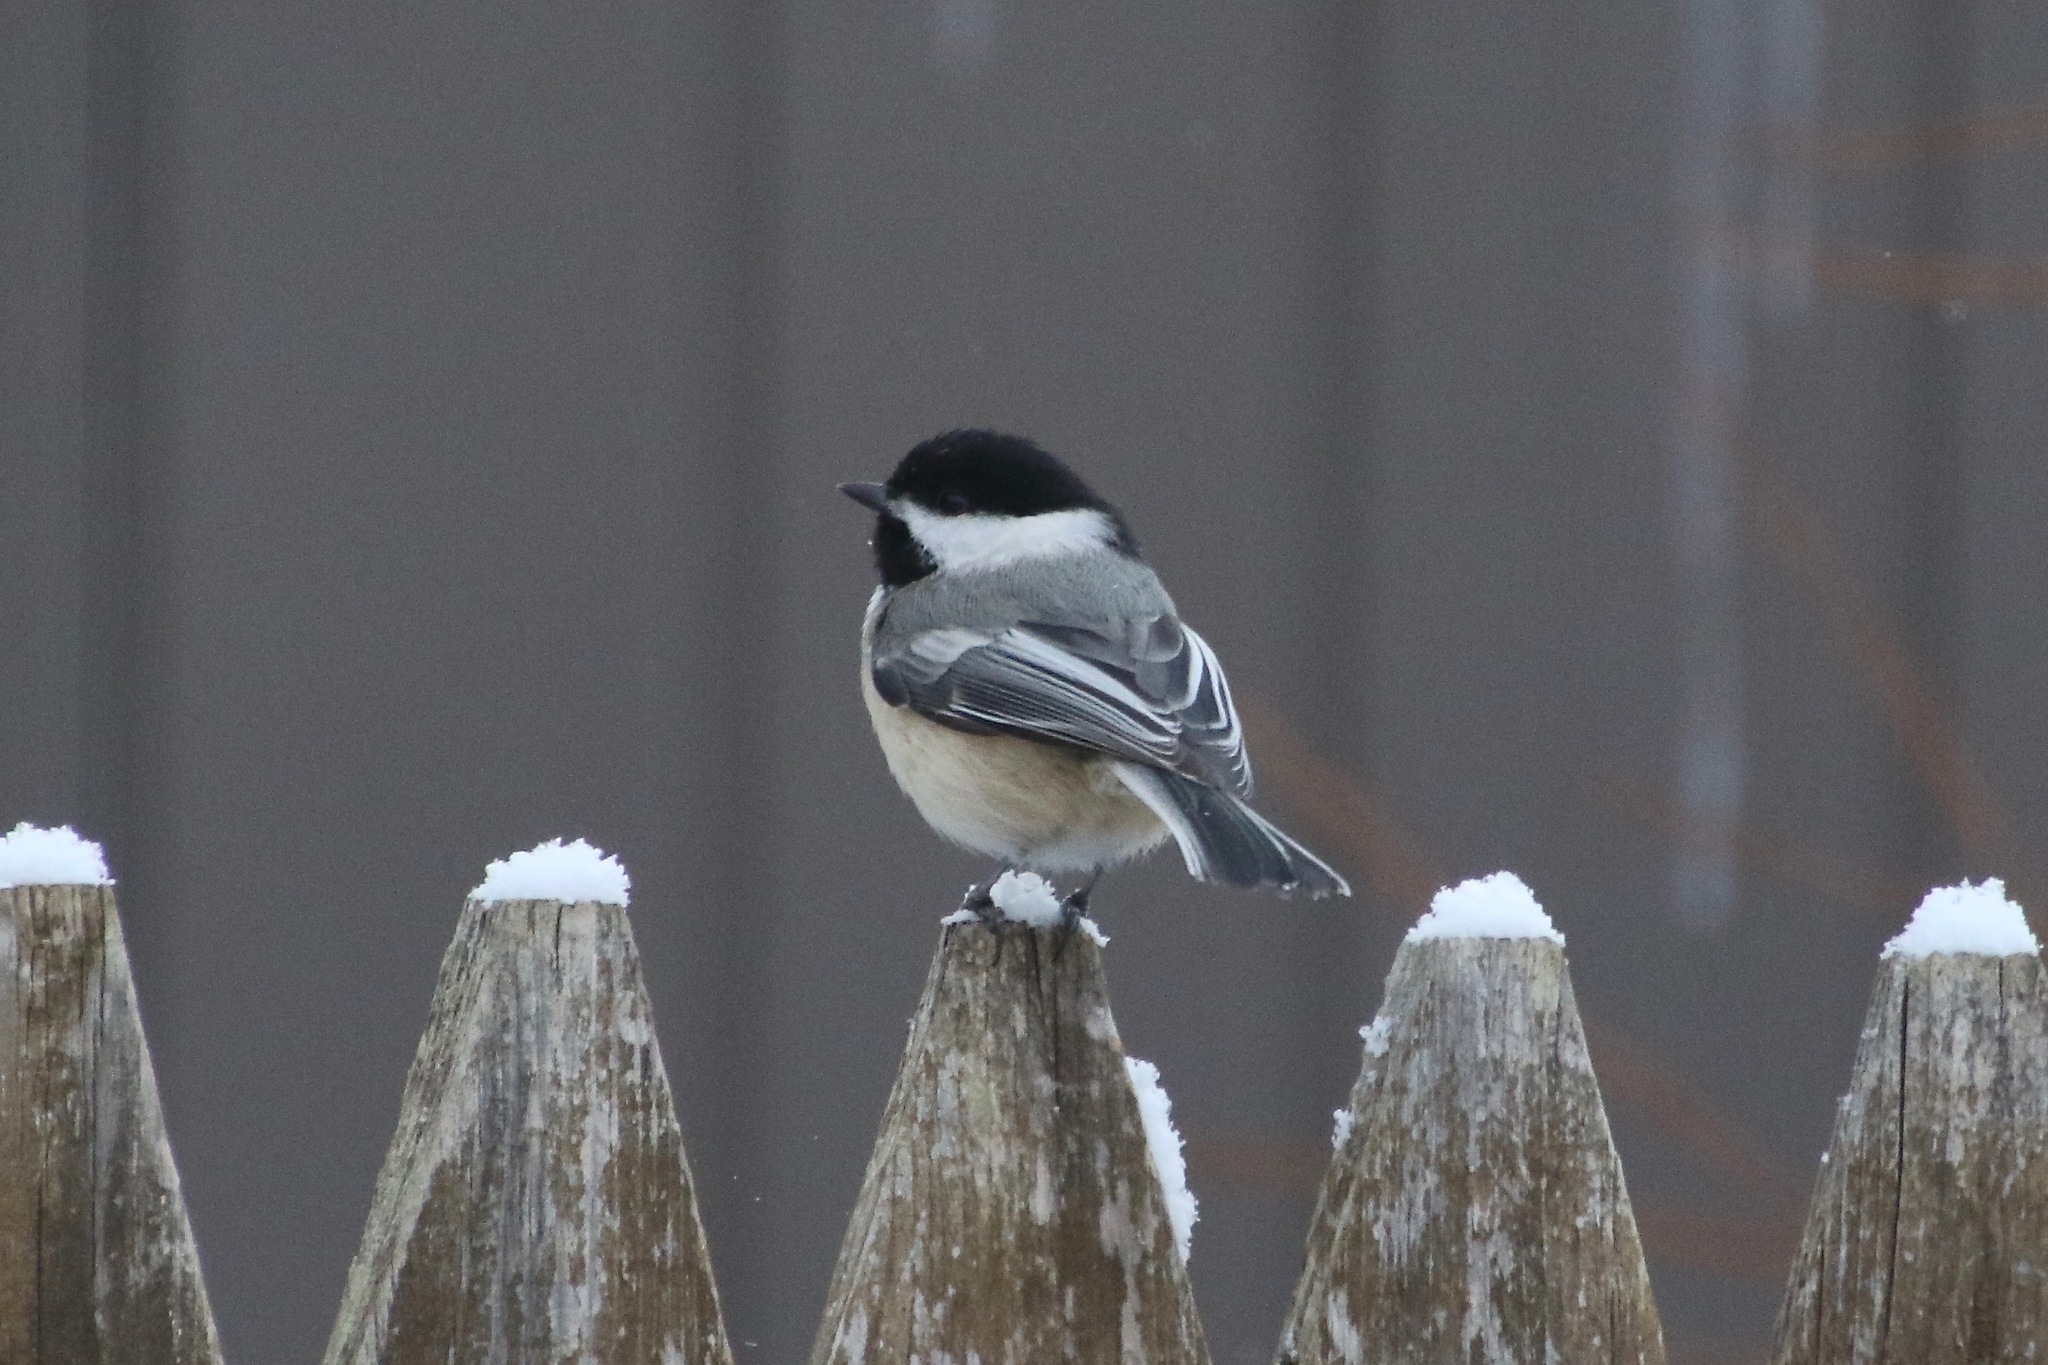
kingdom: Animalia
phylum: Chordata
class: Aves
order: Passeriformes
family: Paridae
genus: Poecile
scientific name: Poecile atricapillus
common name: Black-capped chickadee
